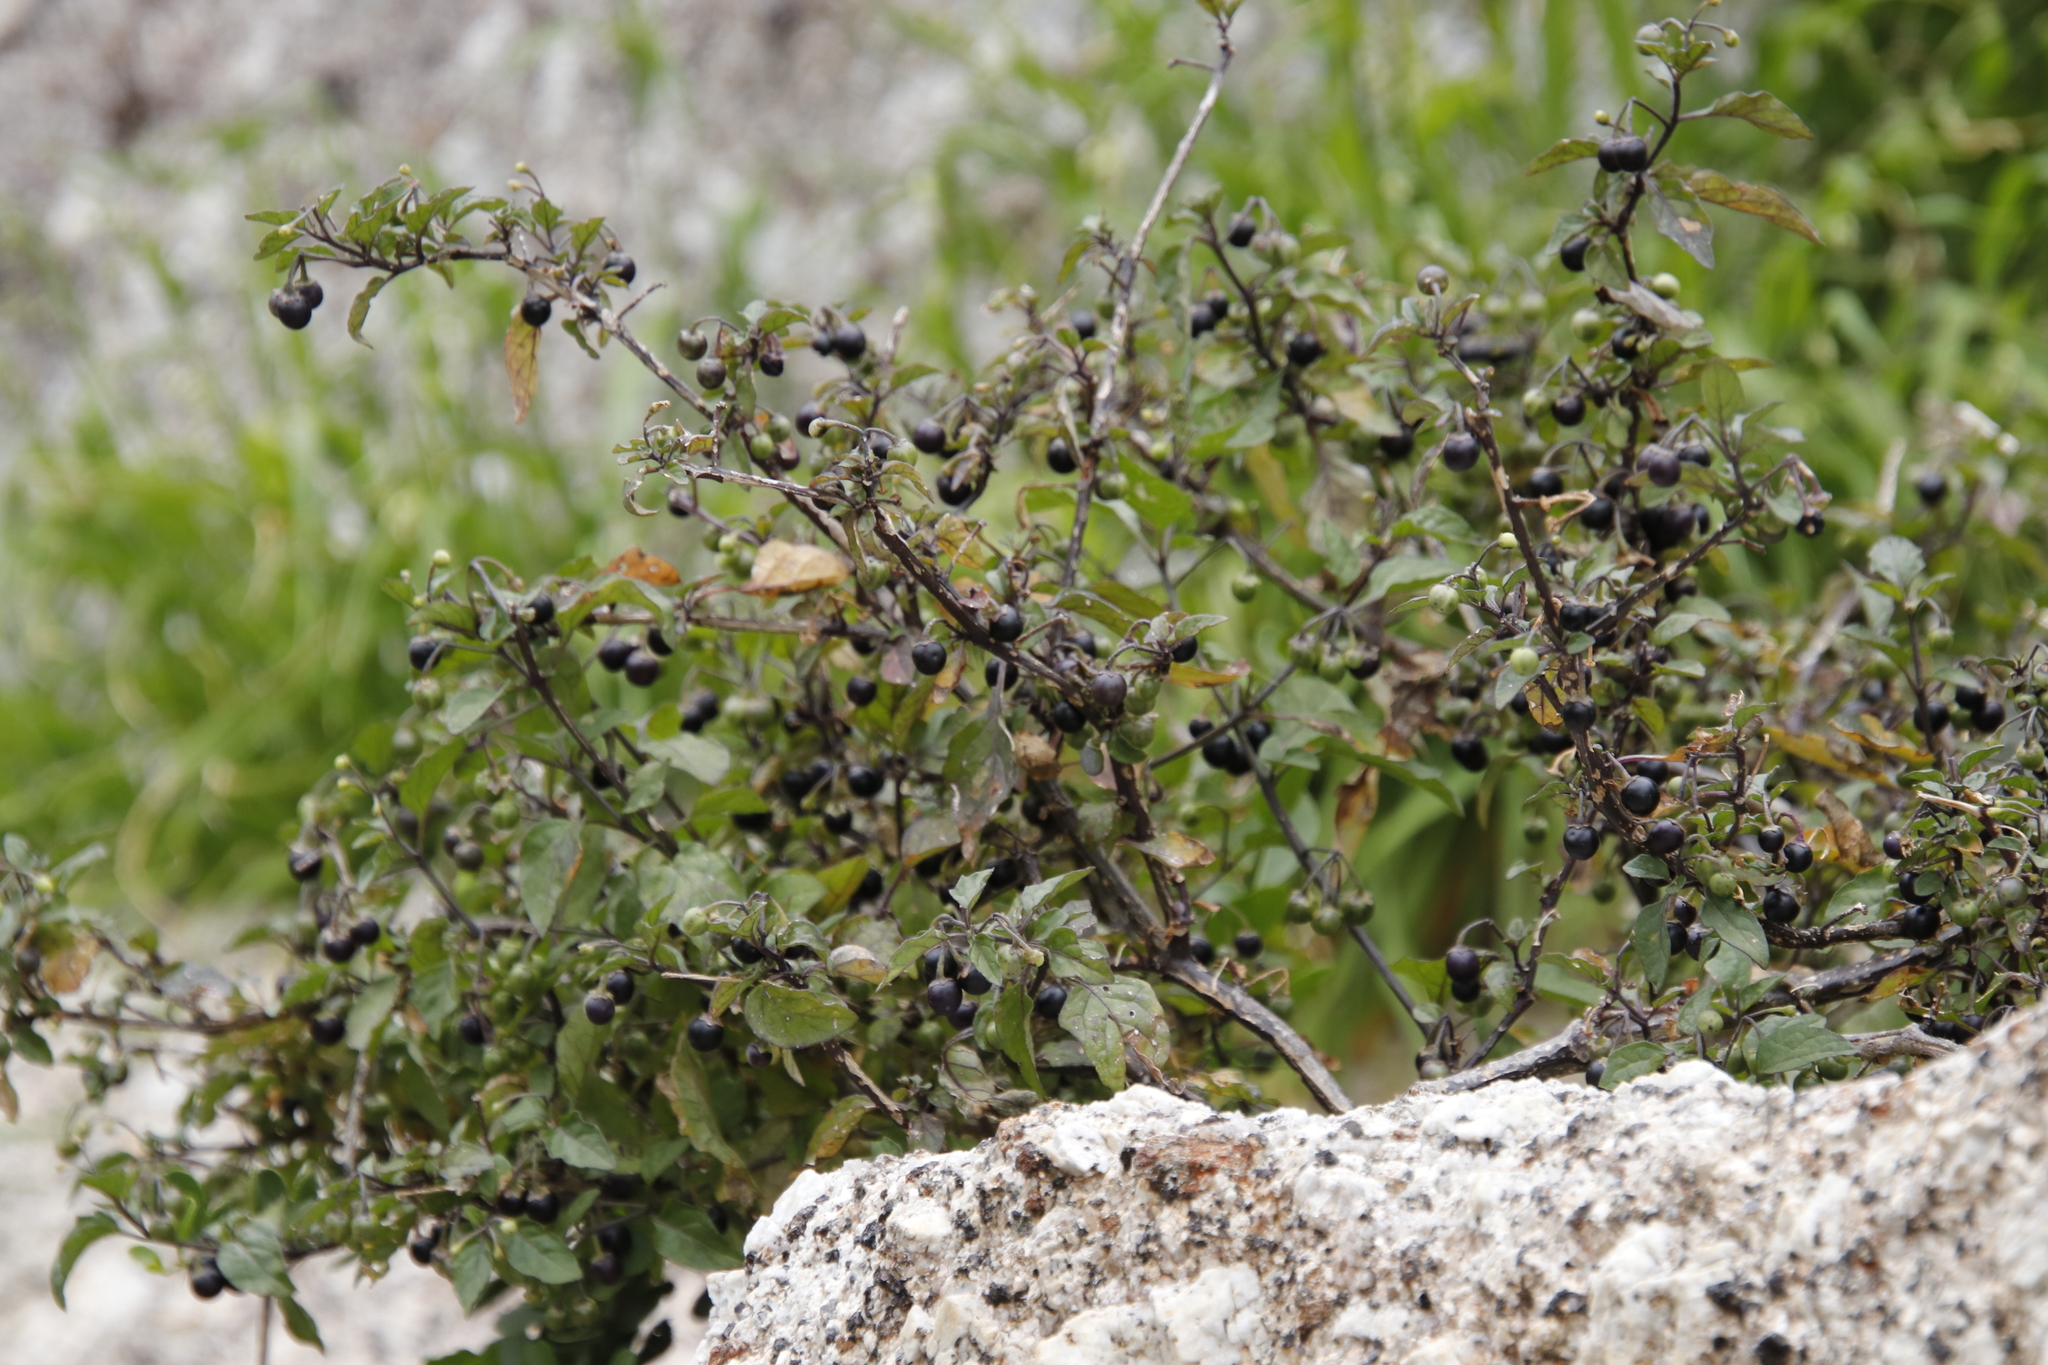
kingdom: Plantae
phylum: Tracheophyta
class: Magnoliopsida
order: Solanales
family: Solanaceae
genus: Solanum
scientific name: Solanum nigrum
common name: Black nightshade
